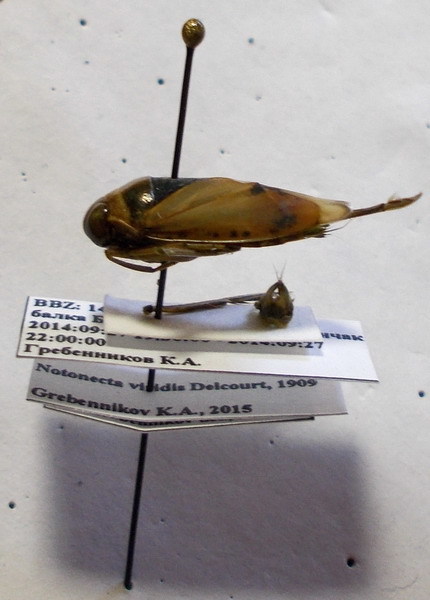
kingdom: Animalia
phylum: Arthropoda
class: Insecta
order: Hemiptera
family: Notonectidae
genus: Notonecta
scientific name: Notonecta viridis
